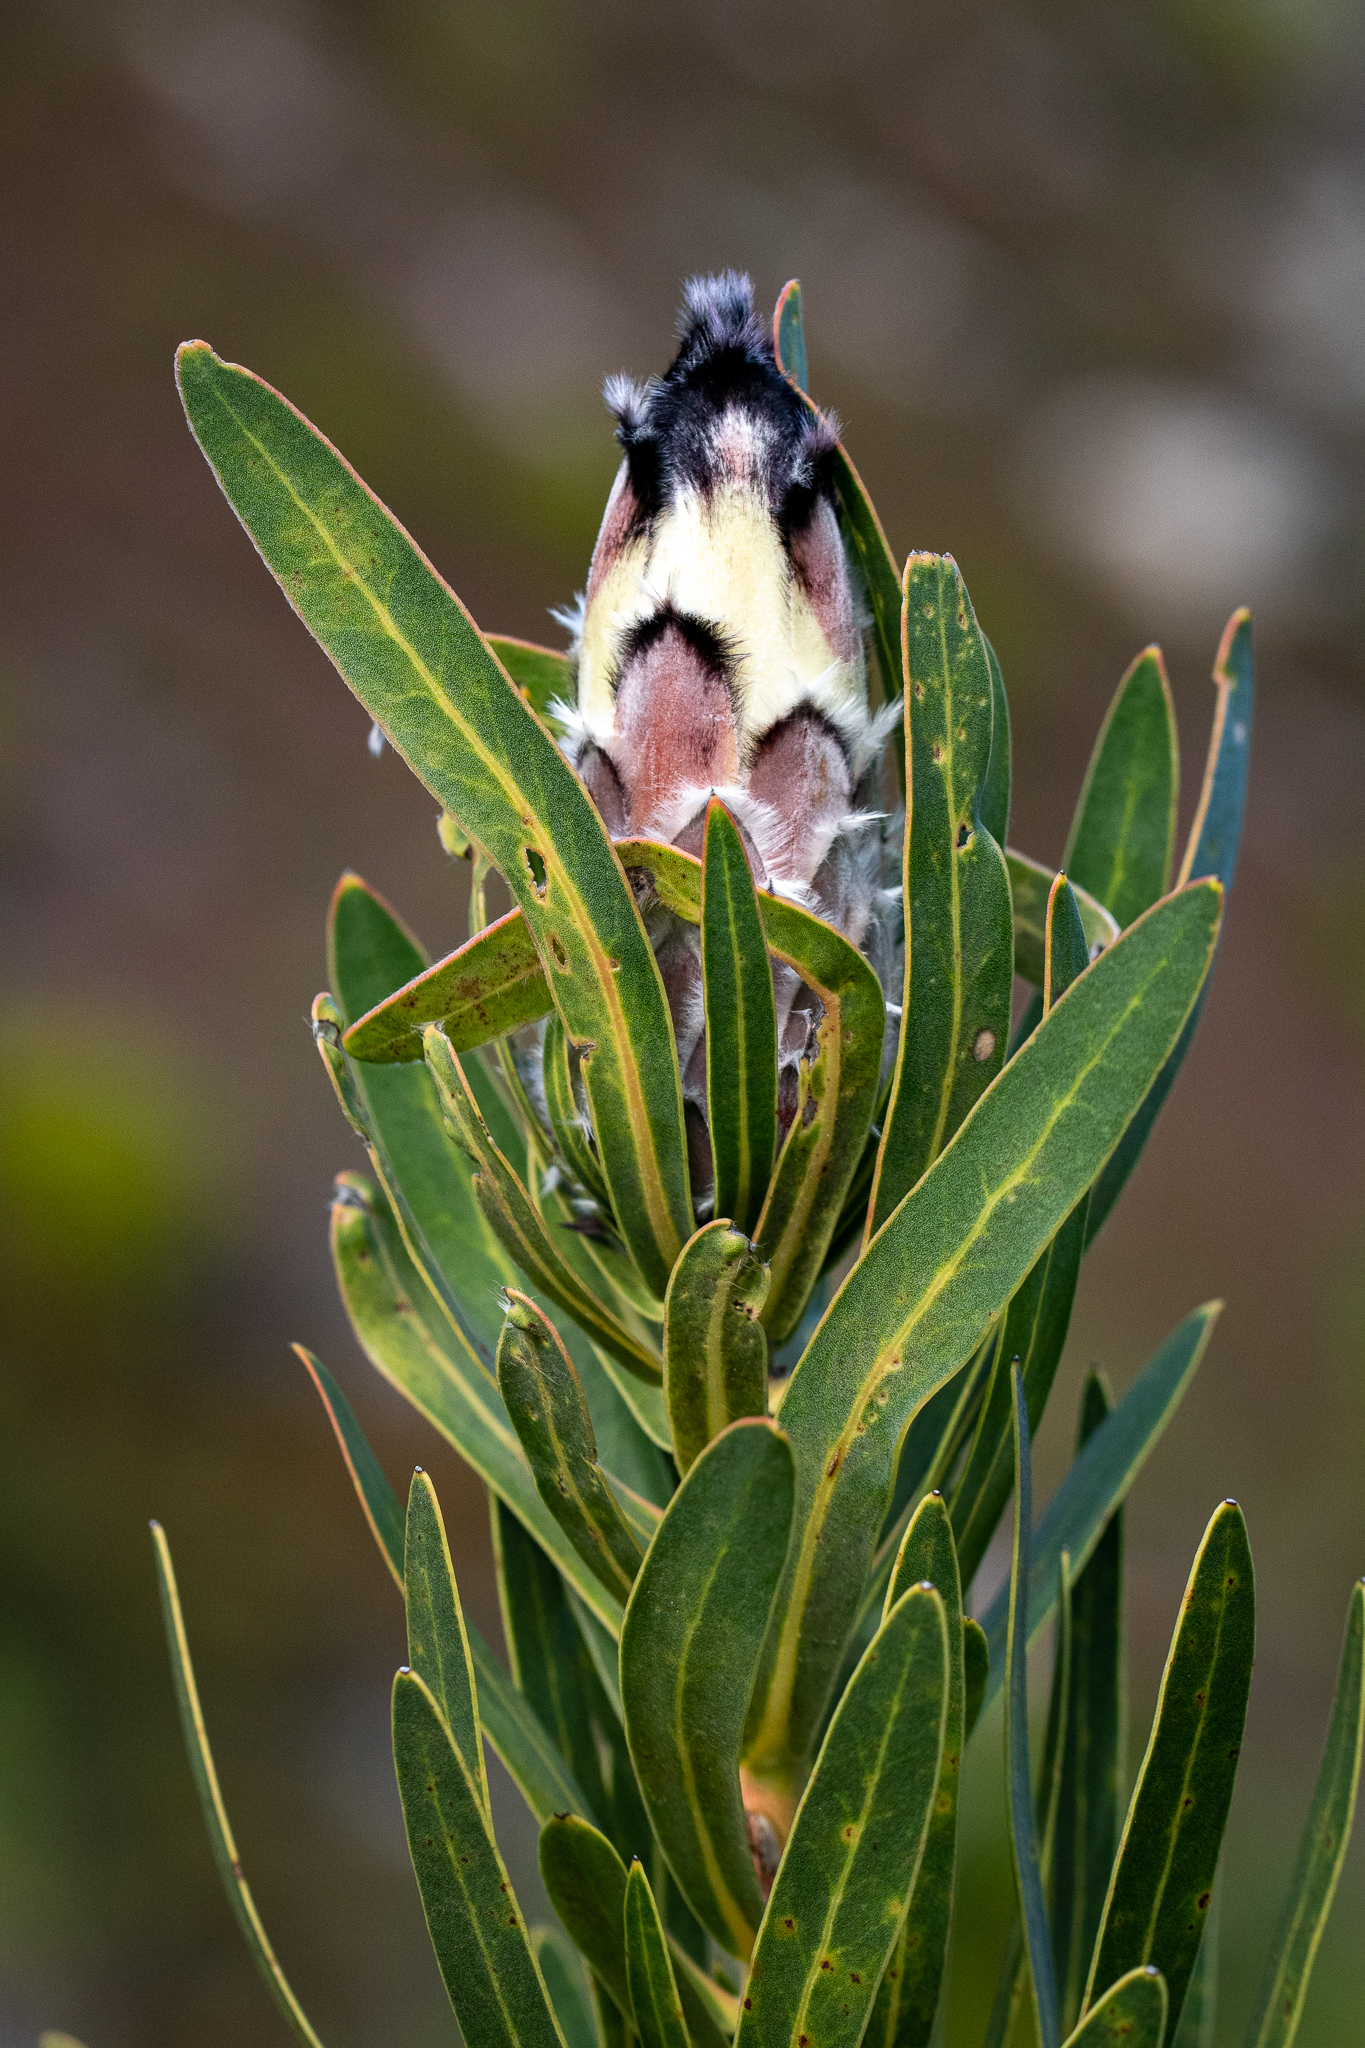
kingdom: Plantae
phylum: Tracheophyta
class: Magnoliopsida
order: Proteales
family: Proteaceae
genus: Protea
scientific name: Protea lepidocarpodendron
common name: Black-bearded protea
